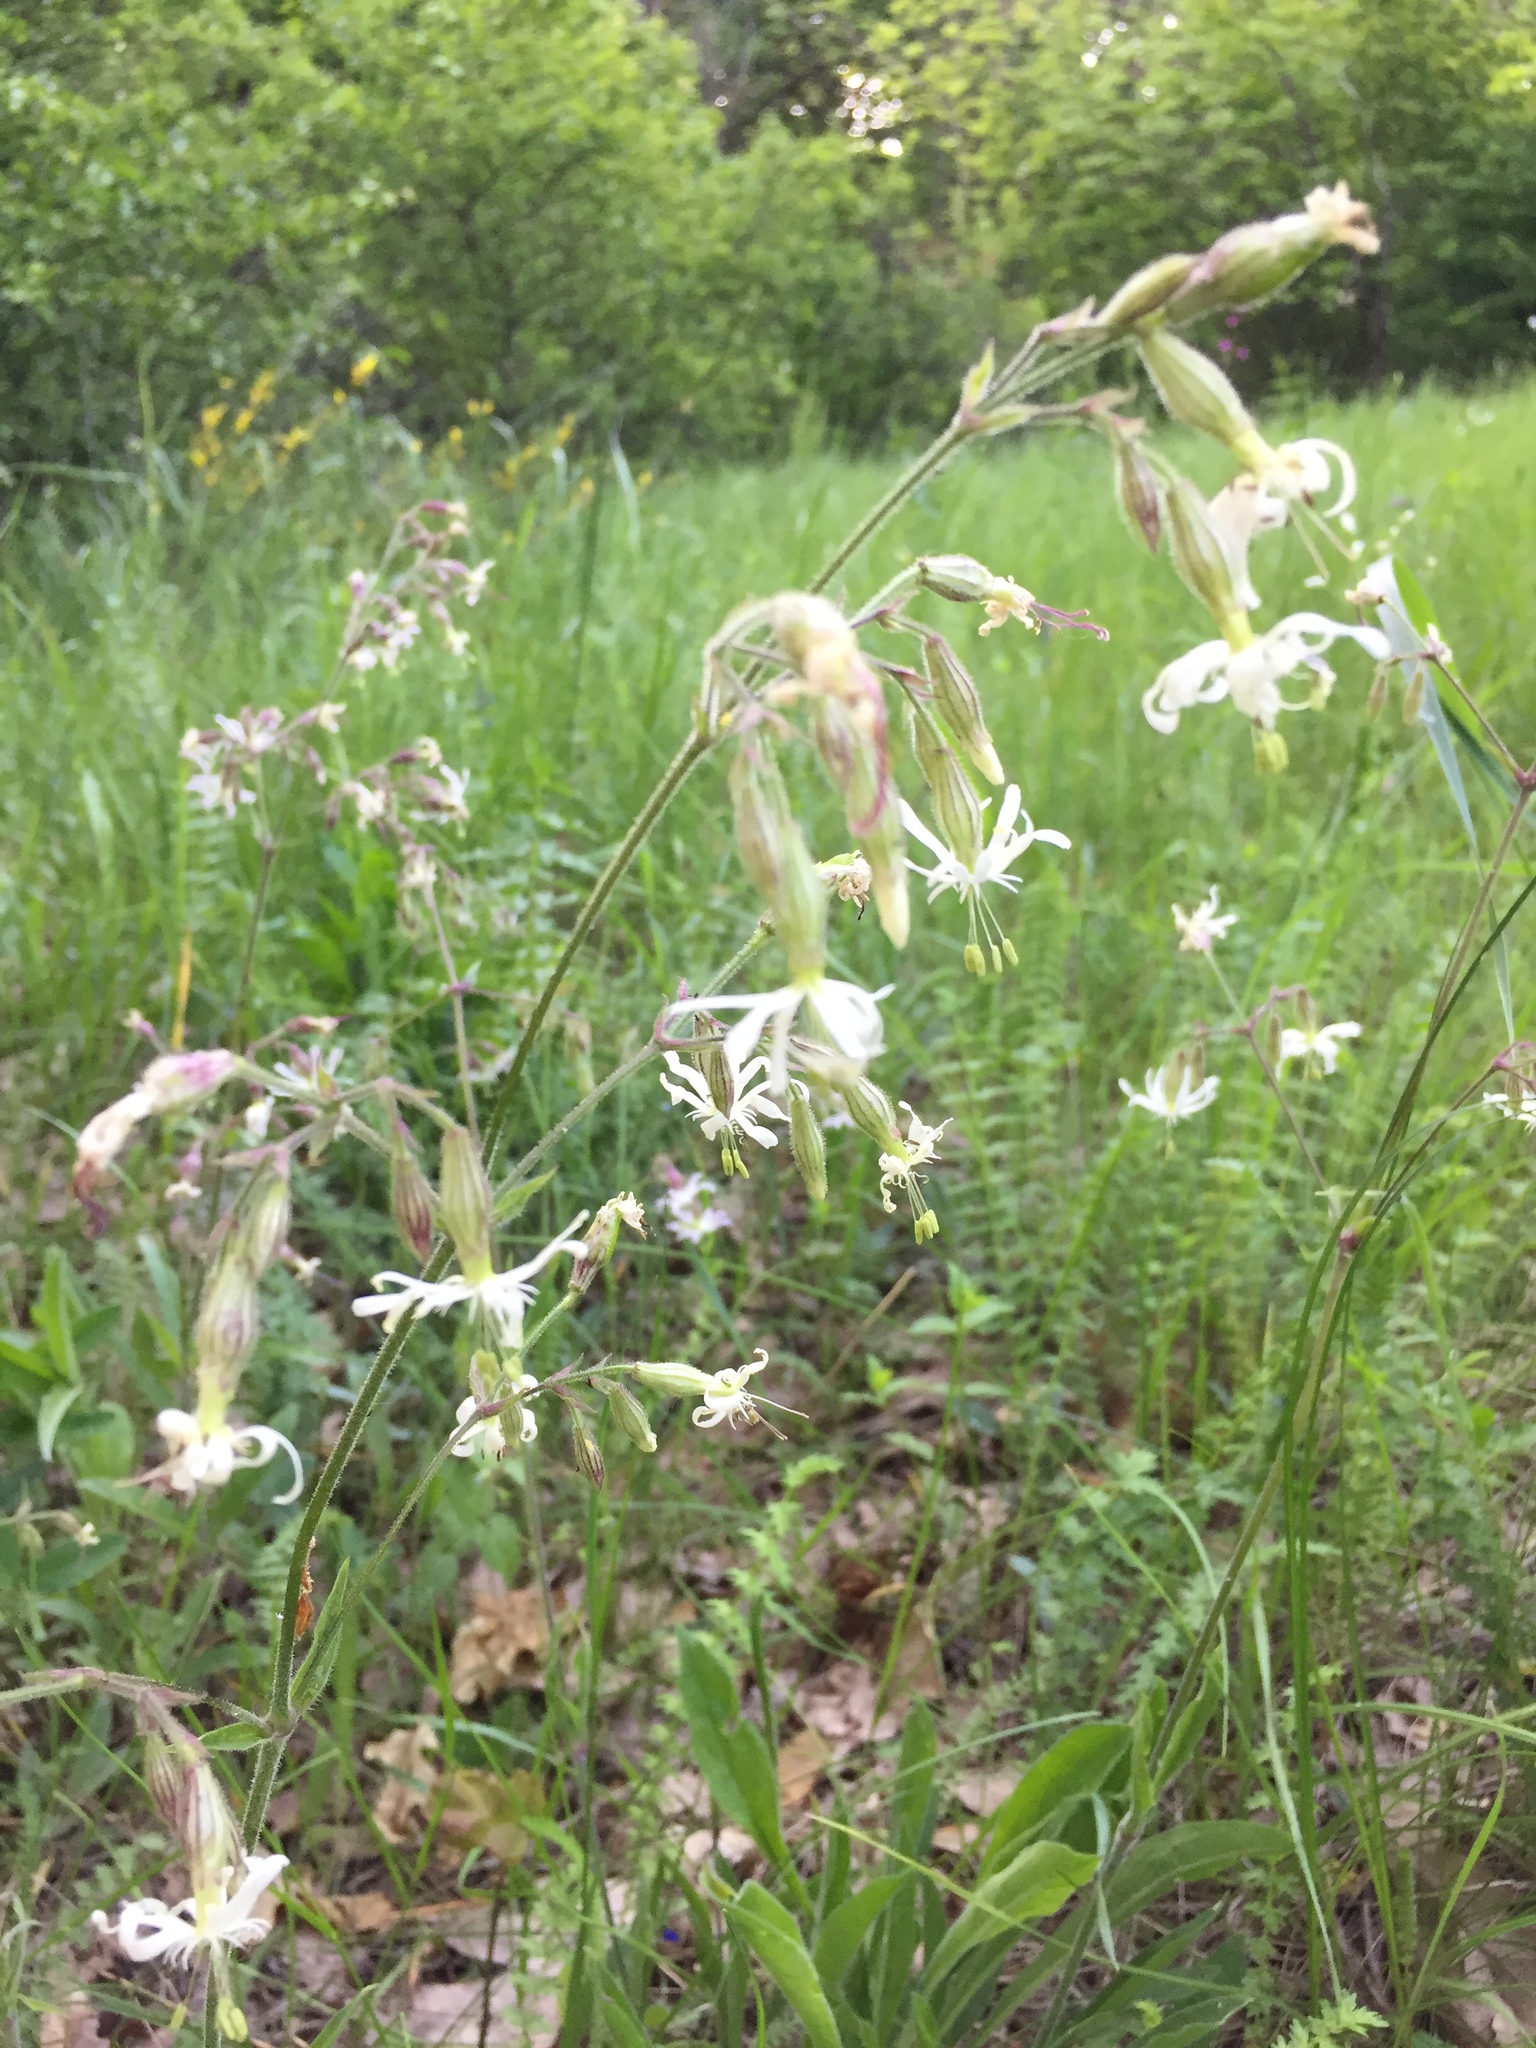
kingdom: Plantae
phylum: Tracheophyta
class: Magnoliopsida
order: Caryophyllales
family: Caryophyllaceae
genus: Silene
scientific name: Silene nutans
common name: Nottingham catchfly
